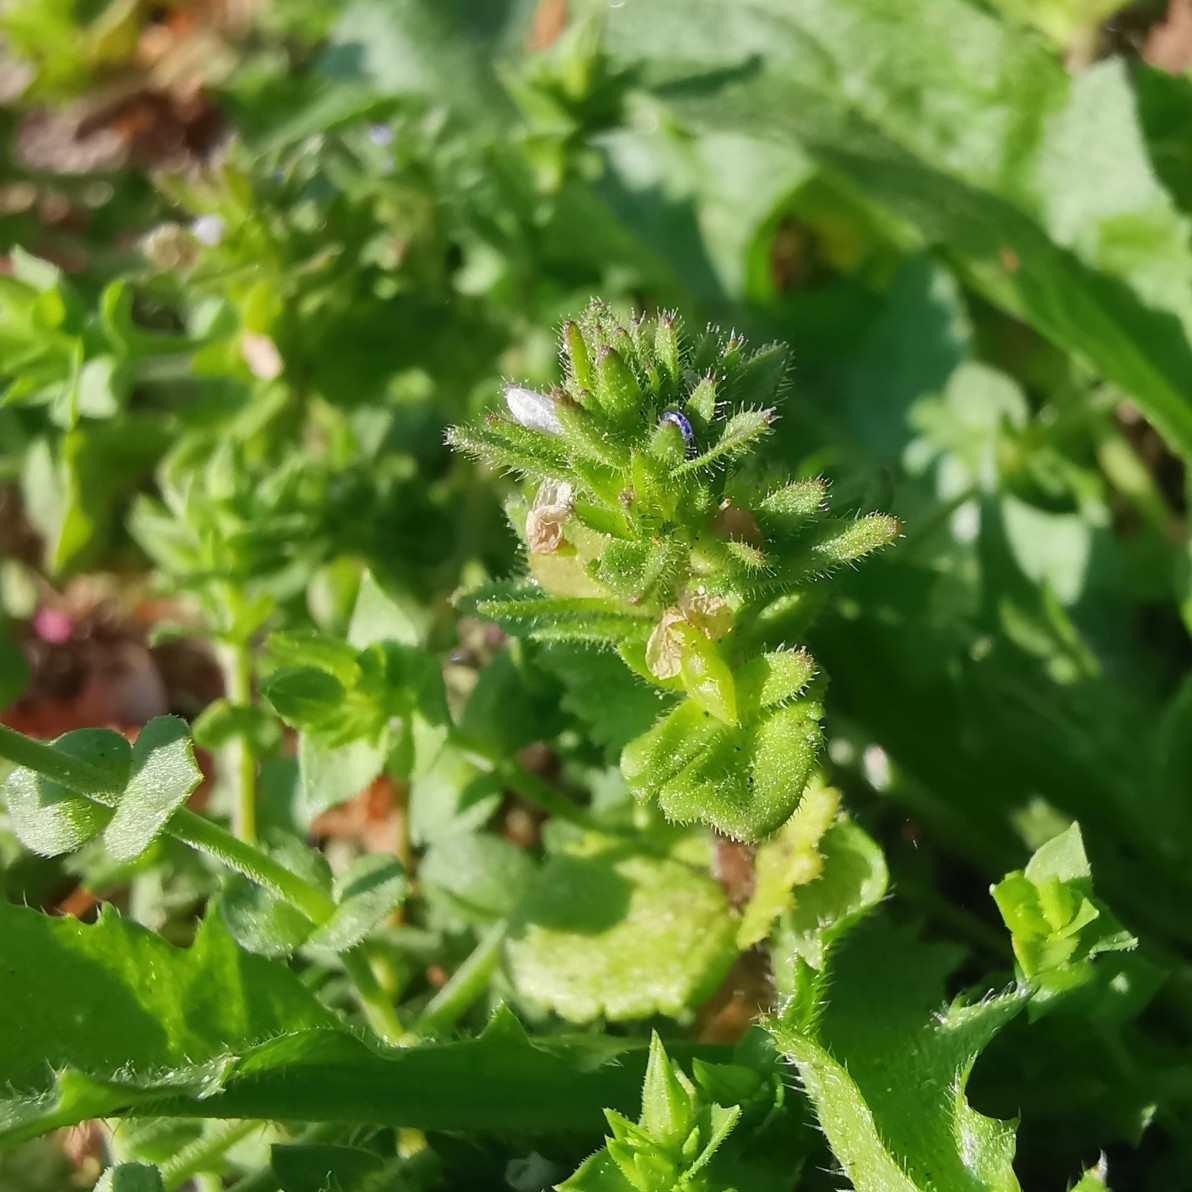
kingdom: Plantae
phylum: Tracheophyta
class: Magnoliopsida
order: Lamiales
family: Plantaginaceae
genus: Veronica
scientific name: Veronica arvensis
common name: Corn speedwell
